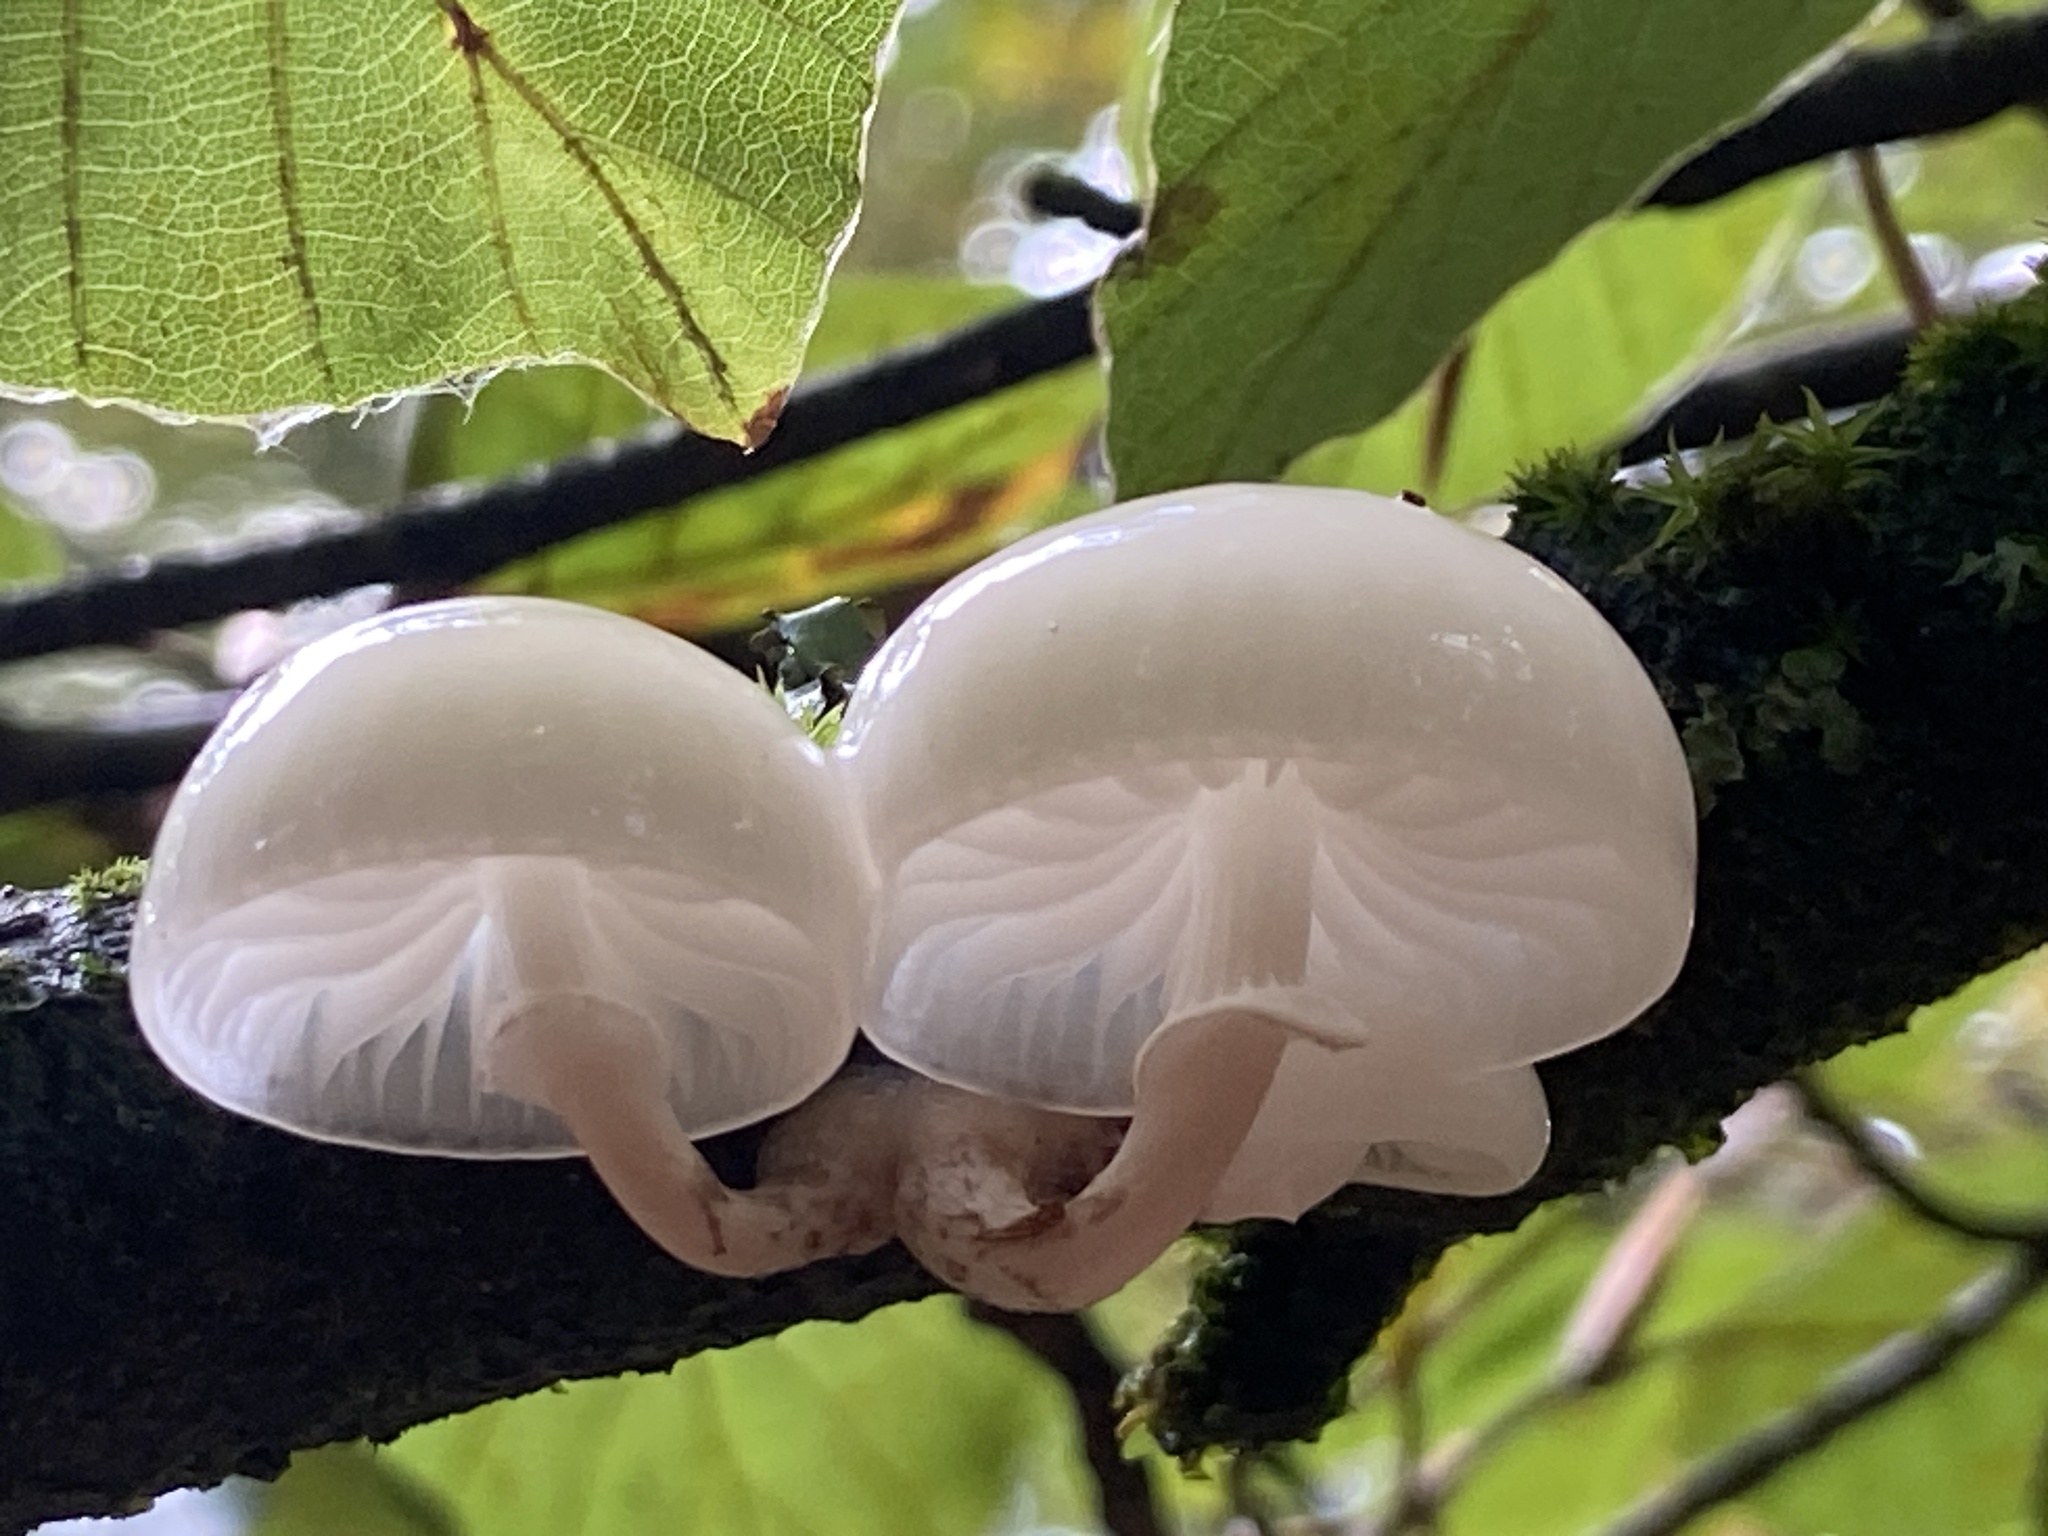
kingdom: Fungi
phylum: Basidiomycota
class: Agaricomycetes
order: Agaricales
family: Physalacriaceae
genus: Mucidula
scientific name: Mucidula mucida
